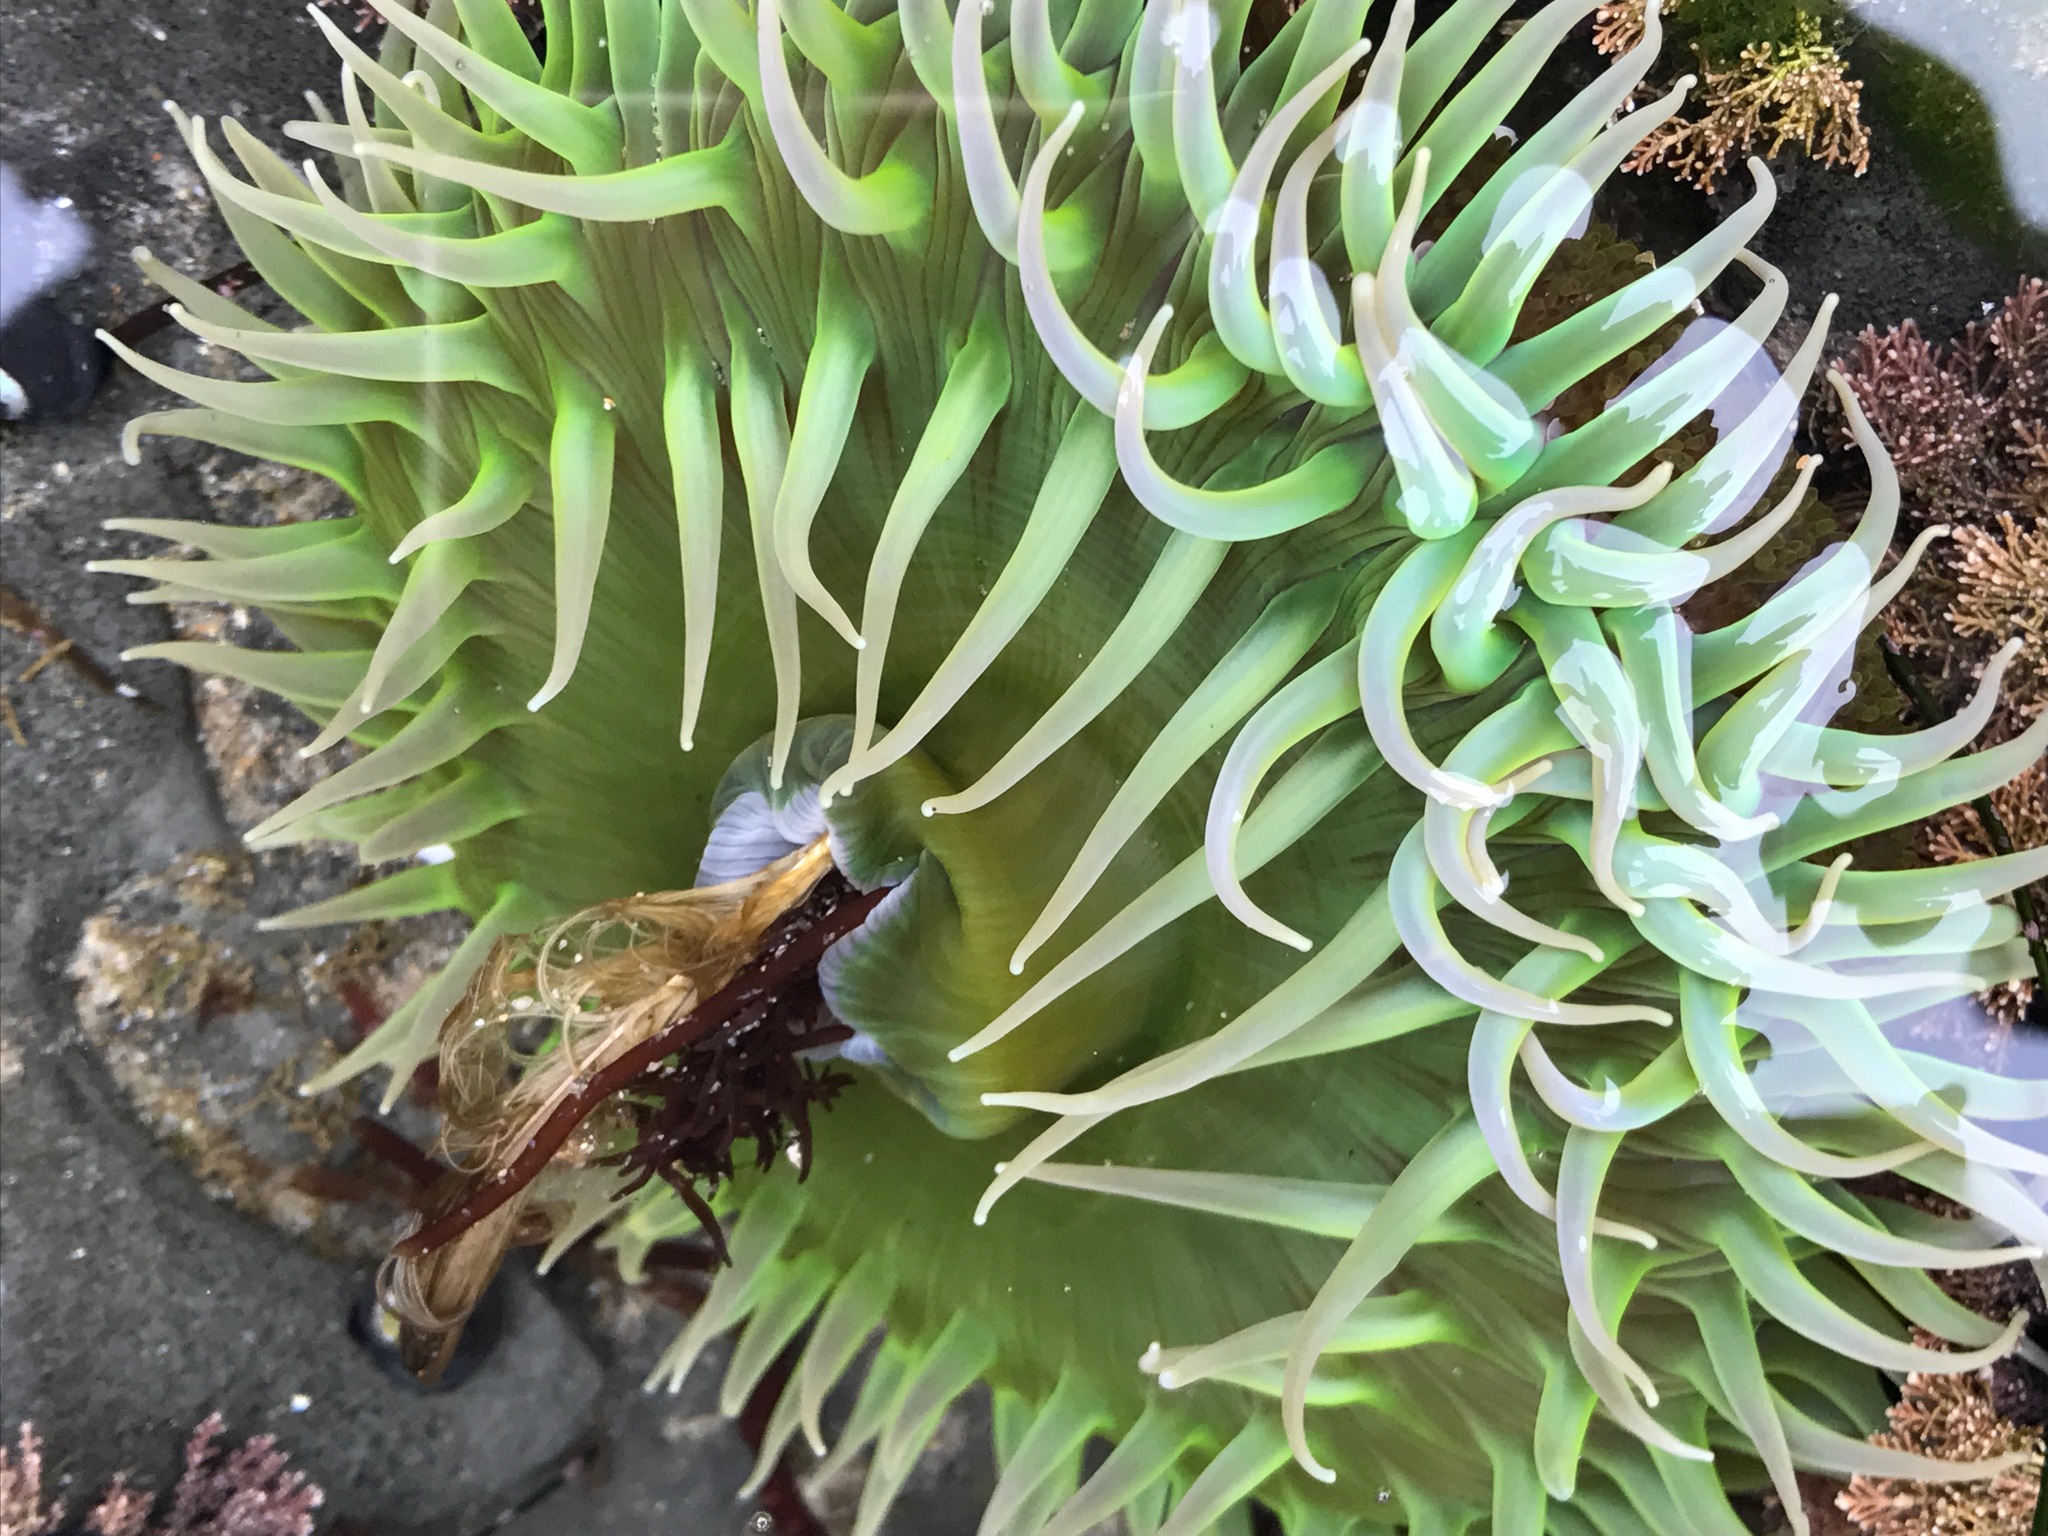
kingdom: Animalia
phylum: Cnidaria
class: Anthozoa
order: Actiniaria
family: Actiniidae
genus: Anthopleura
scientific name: Anthopleura xanthogrammica
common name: Giant green anemone
